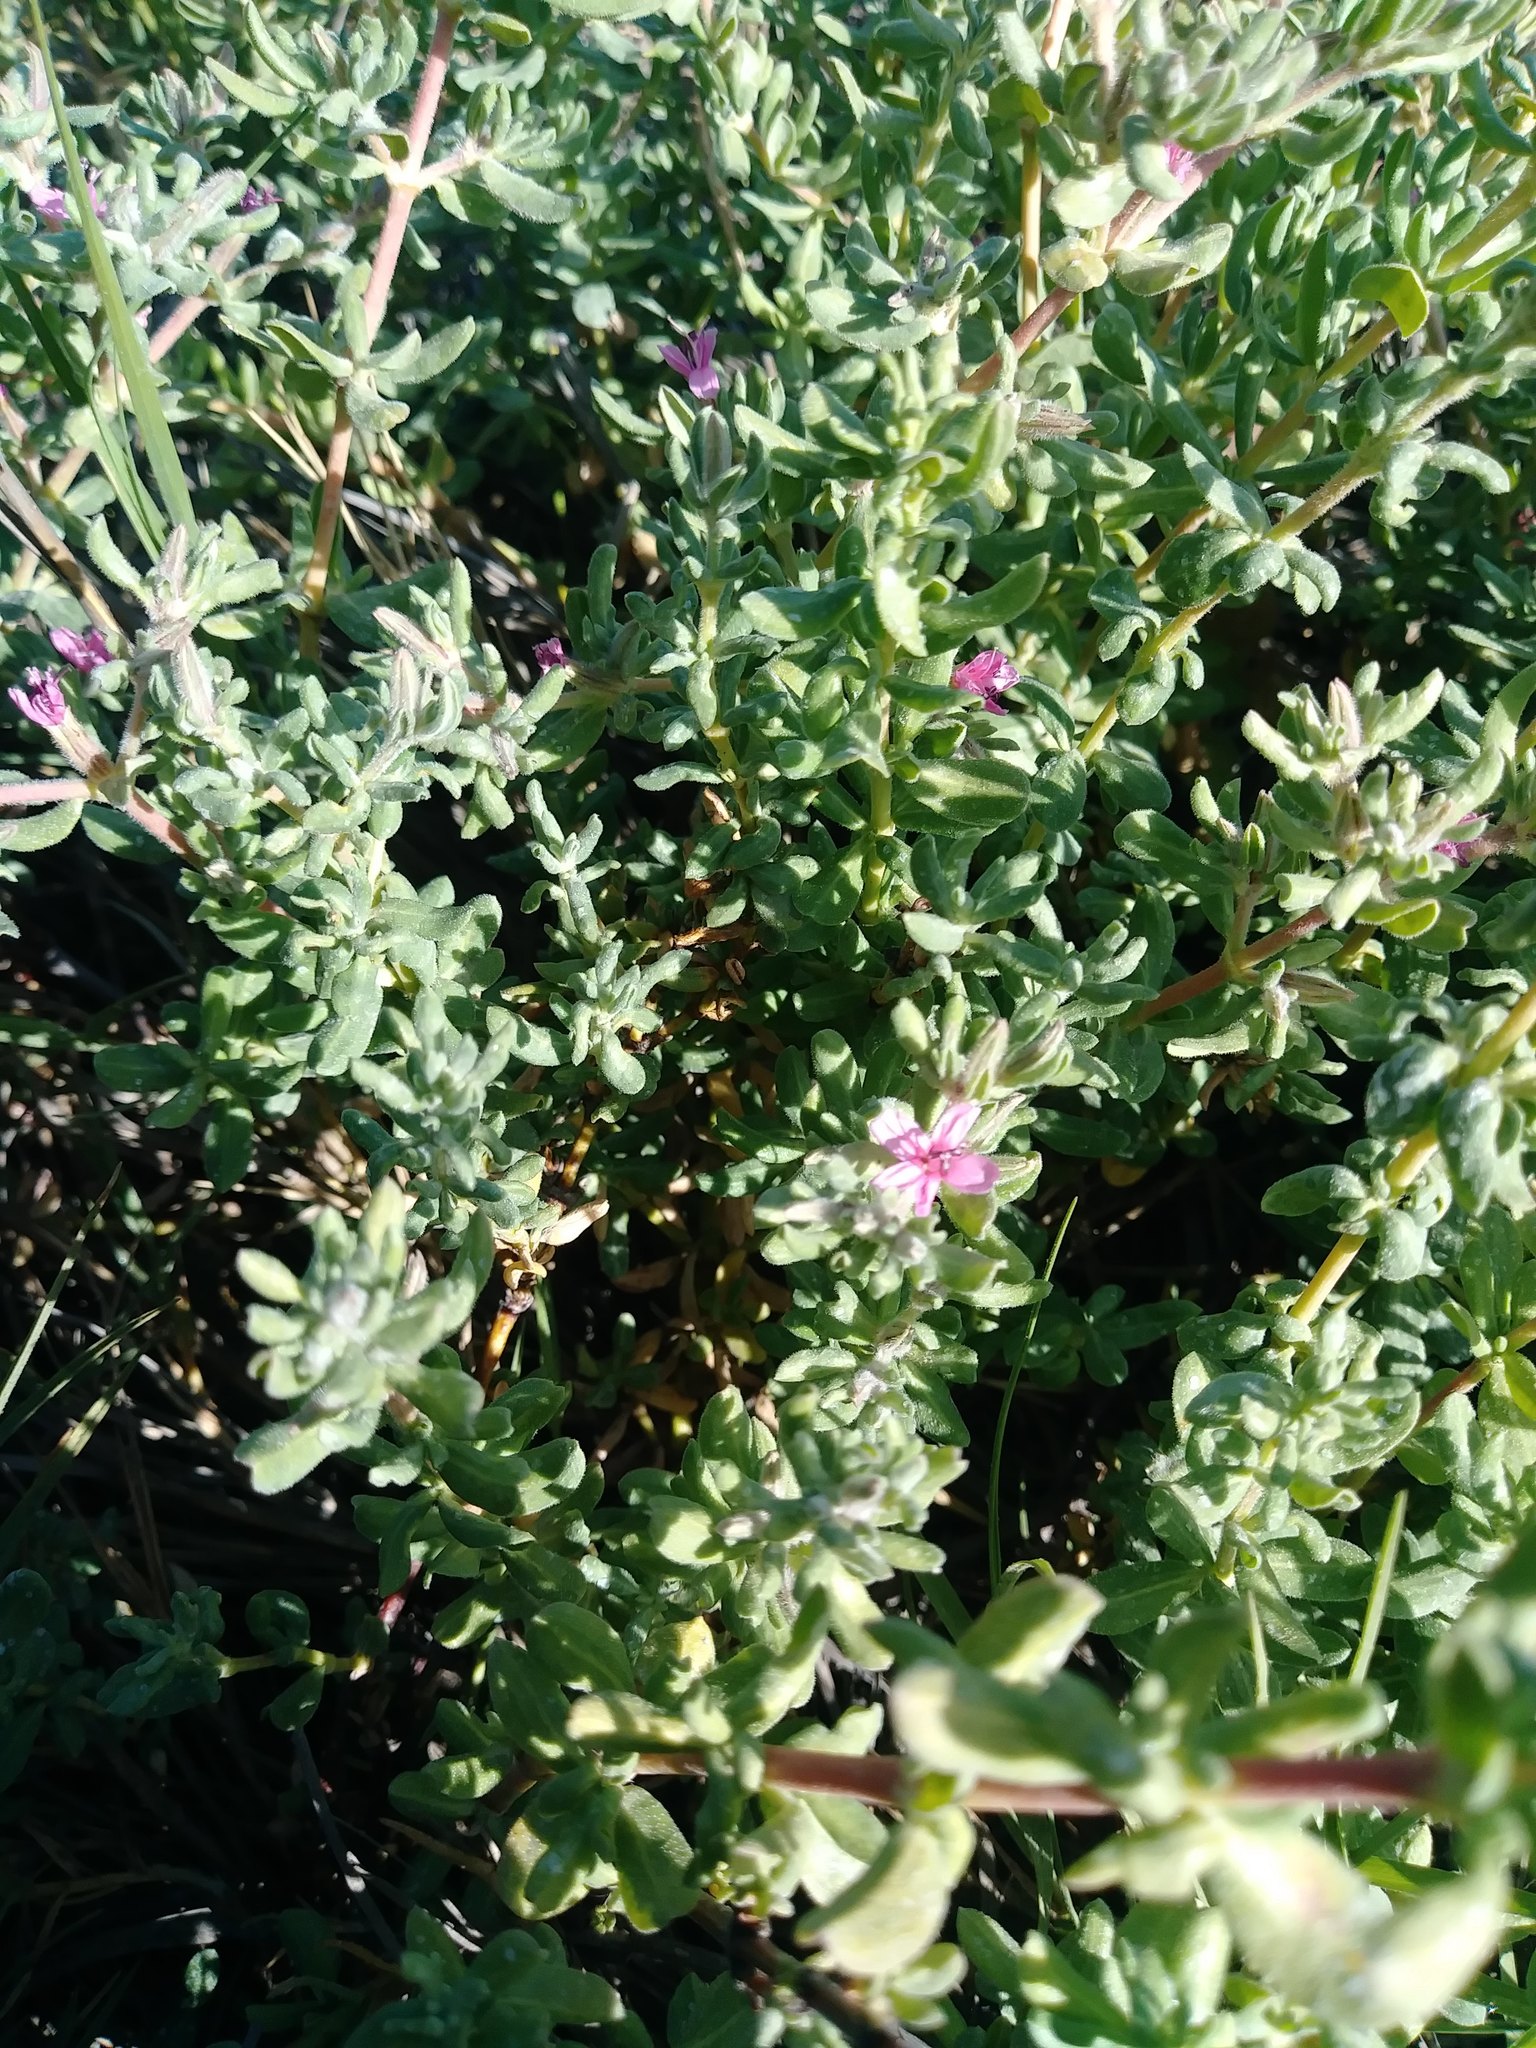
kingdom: Plantae
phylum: Tracheophyta
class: Magnoliopsida
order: Caryophyllales
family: Frankeniaceae
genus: Frankenia
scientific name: Frankenia salina
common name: Alkali seaheath
